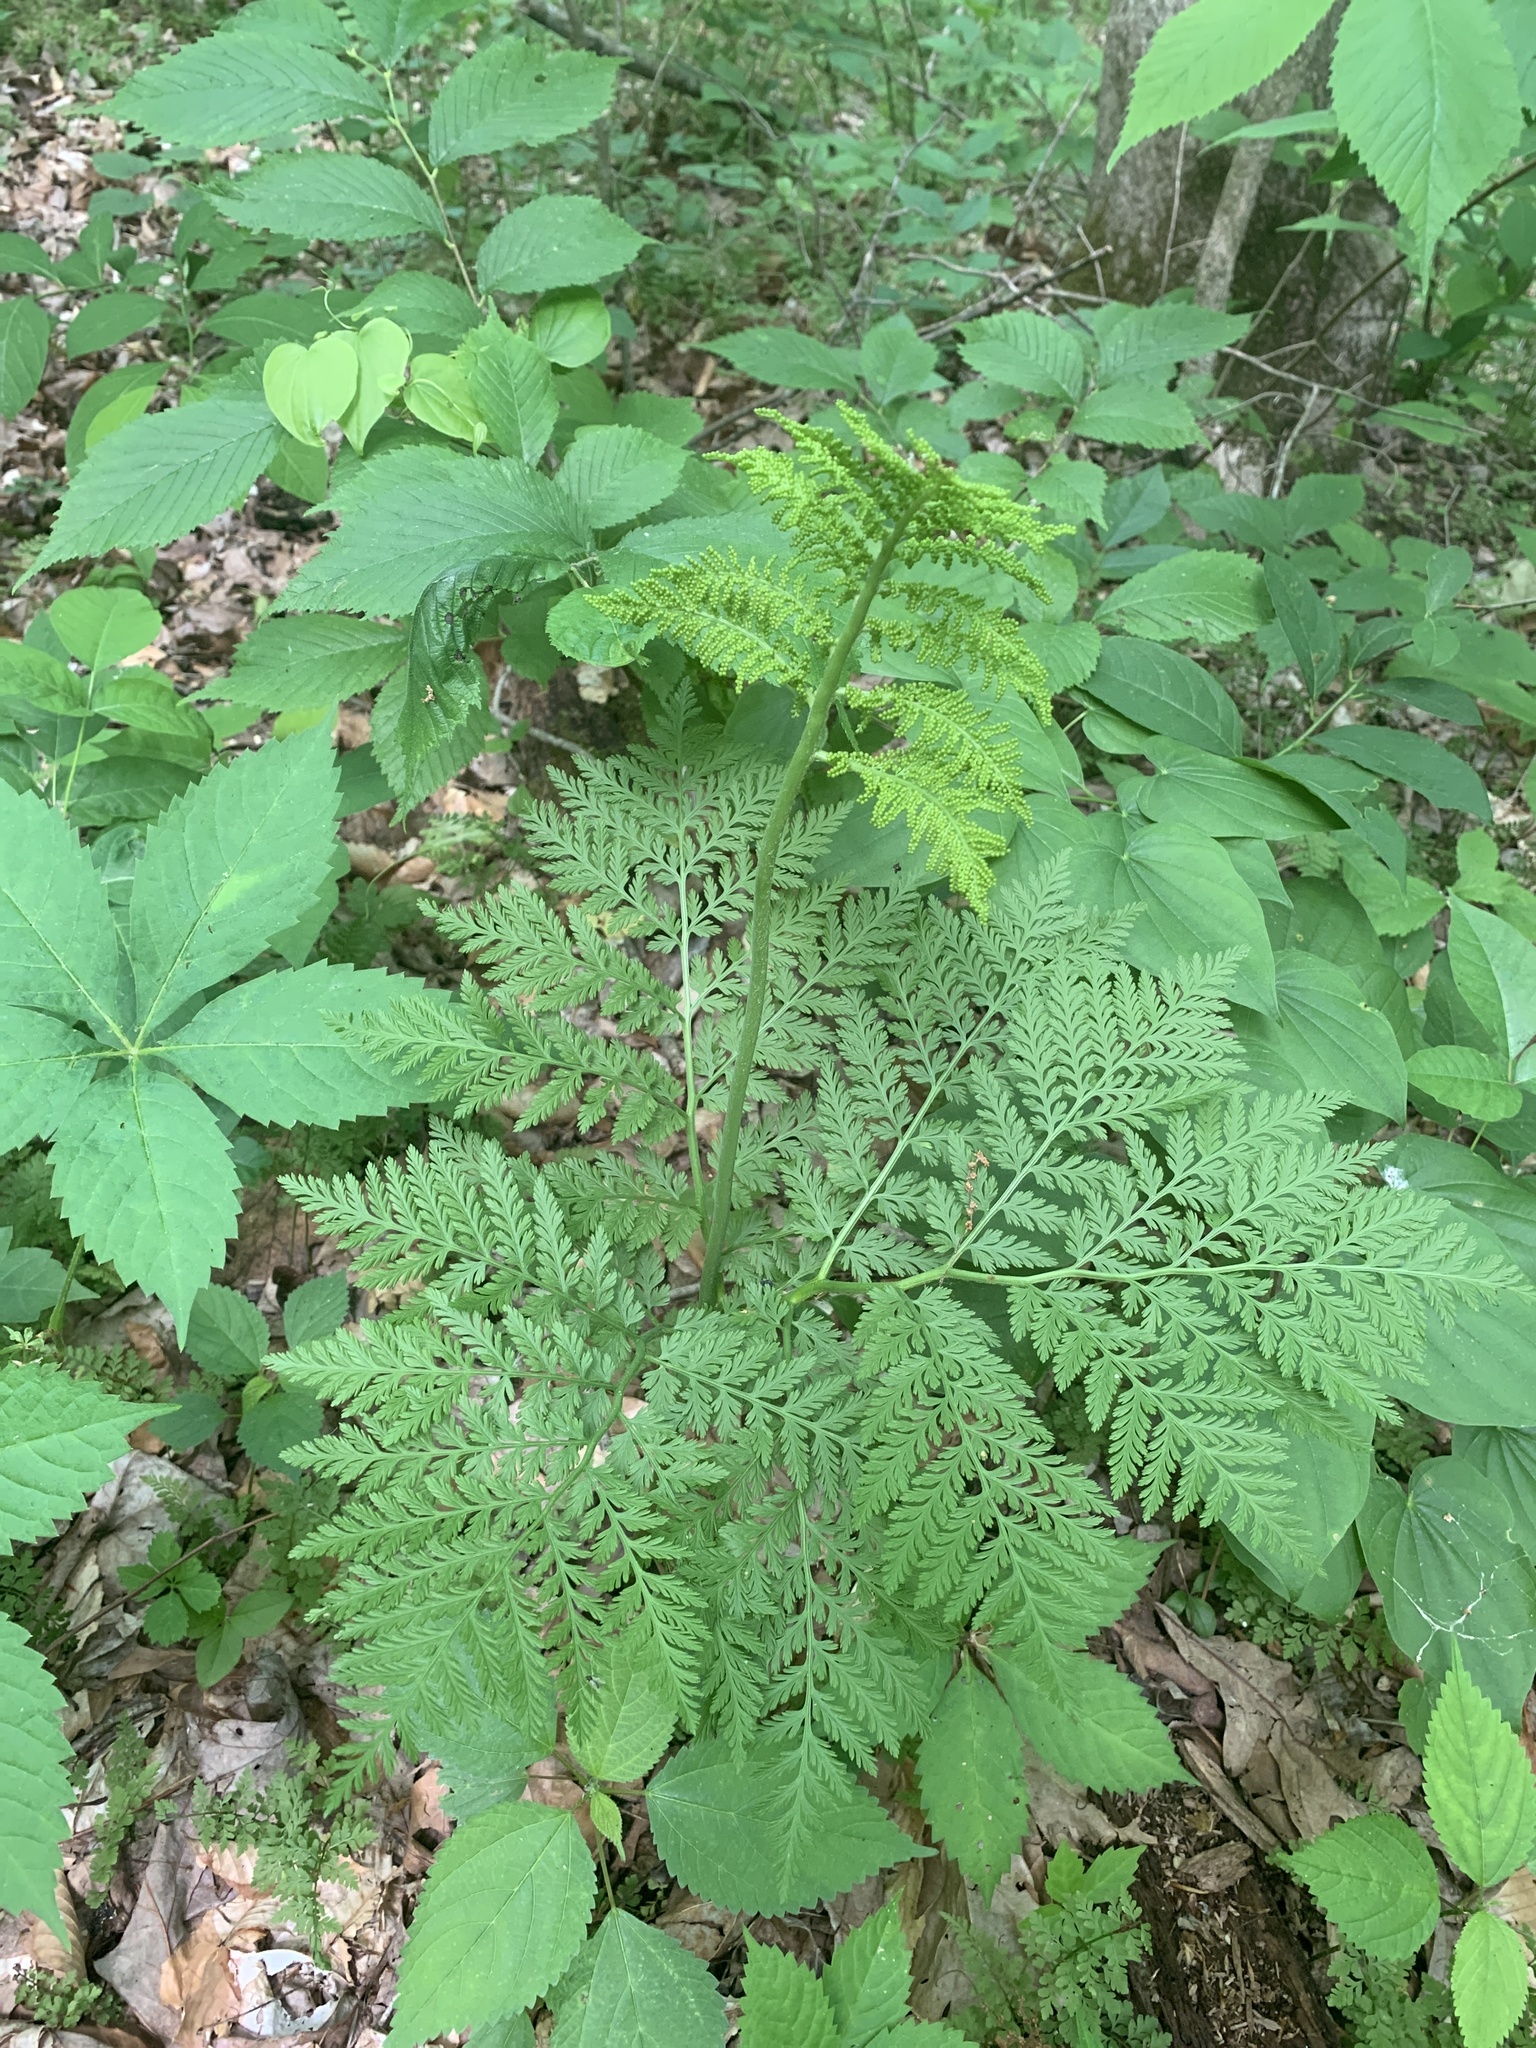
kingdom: Plantae
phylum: Tracheophyta
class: Polypodiopsida
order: Ophioglossales
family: Ophioglossaceae
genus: Botrypus
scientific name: Botrypus virginianus
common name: Common grapefern
